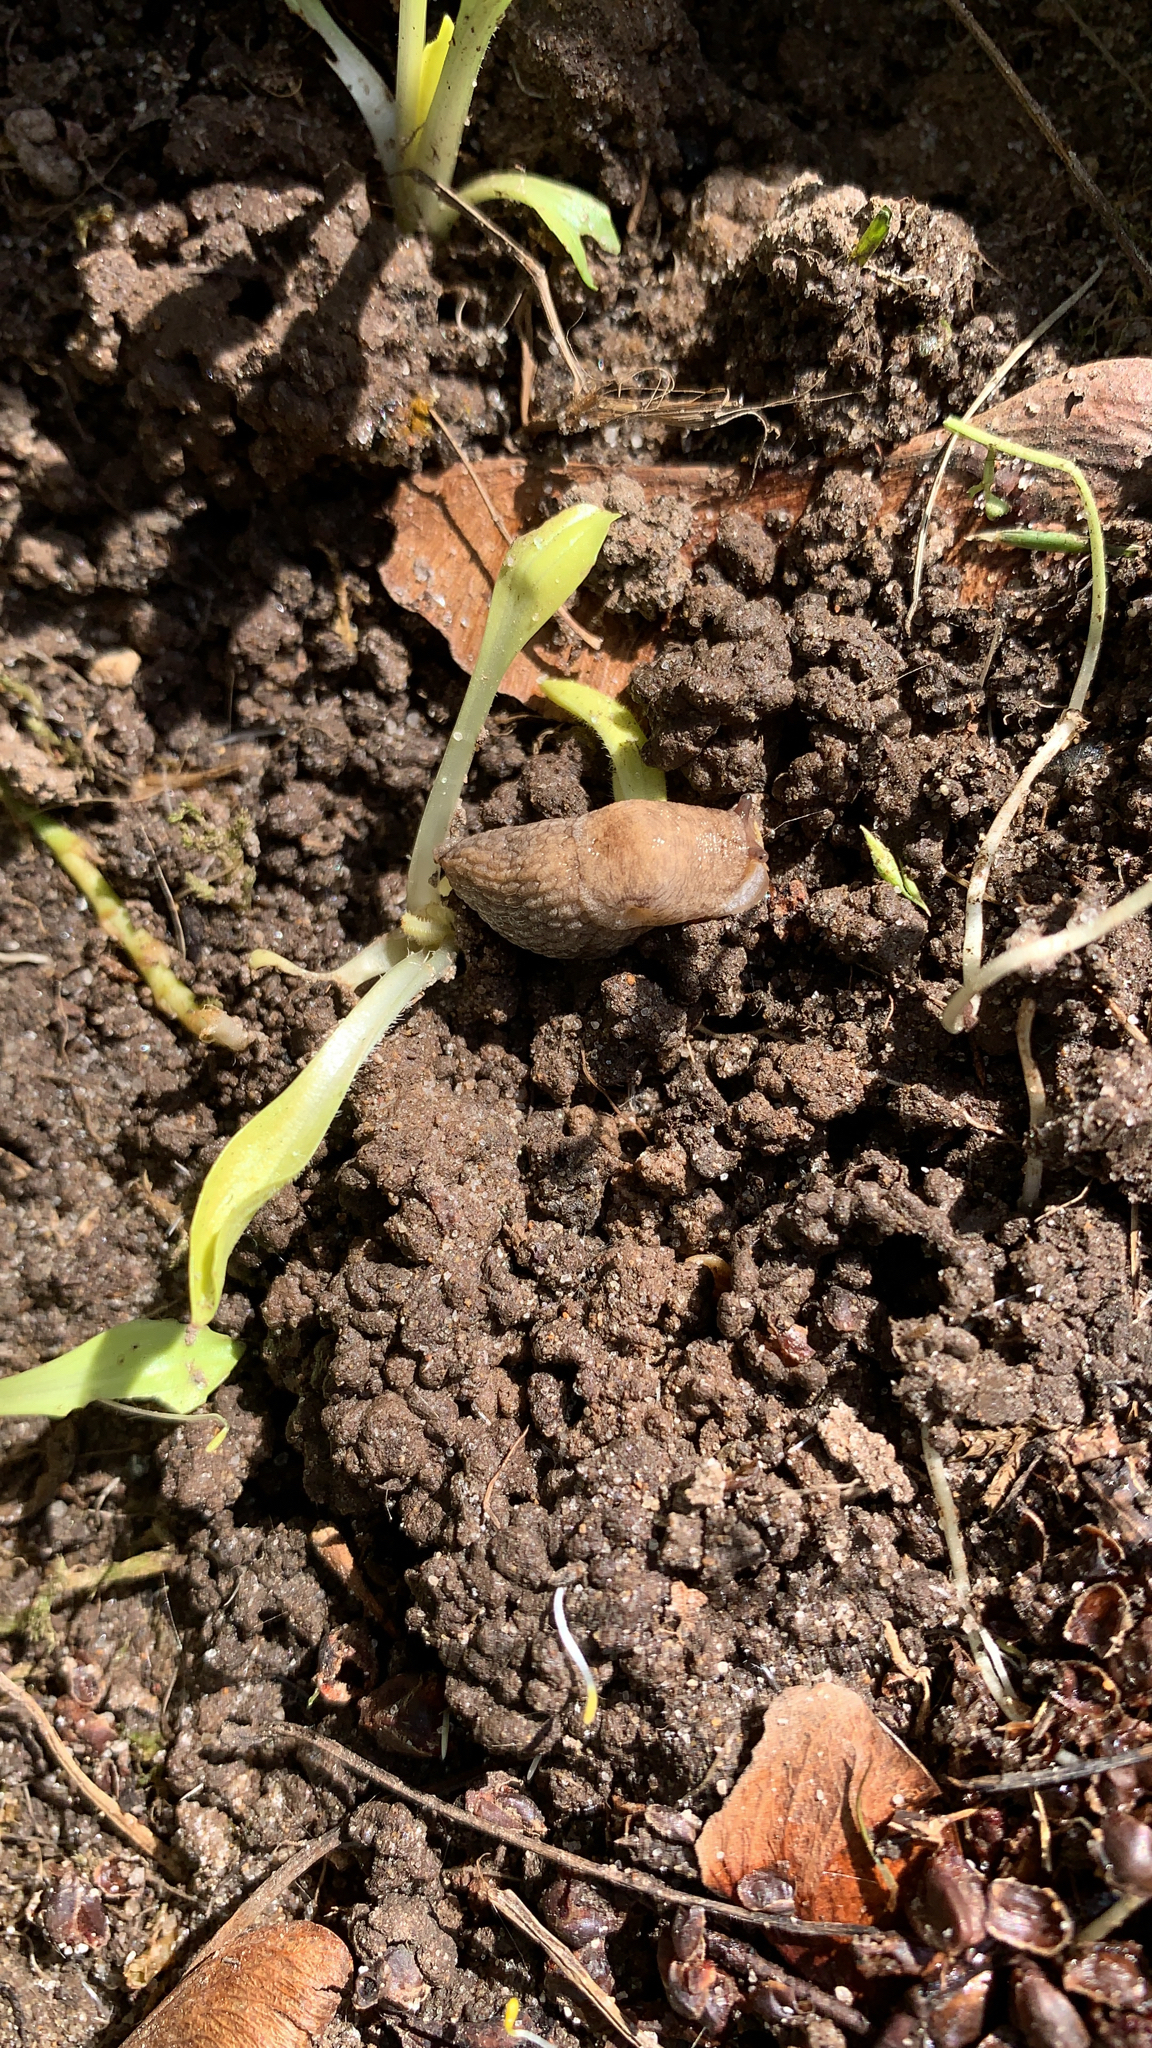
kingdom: Animalia
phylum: Mollusca
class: Gastropoda
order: Stylommatophora
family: Agriolimacidae
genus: Deroceras
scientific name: Deroceras reticulatum
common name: Gray field slug
